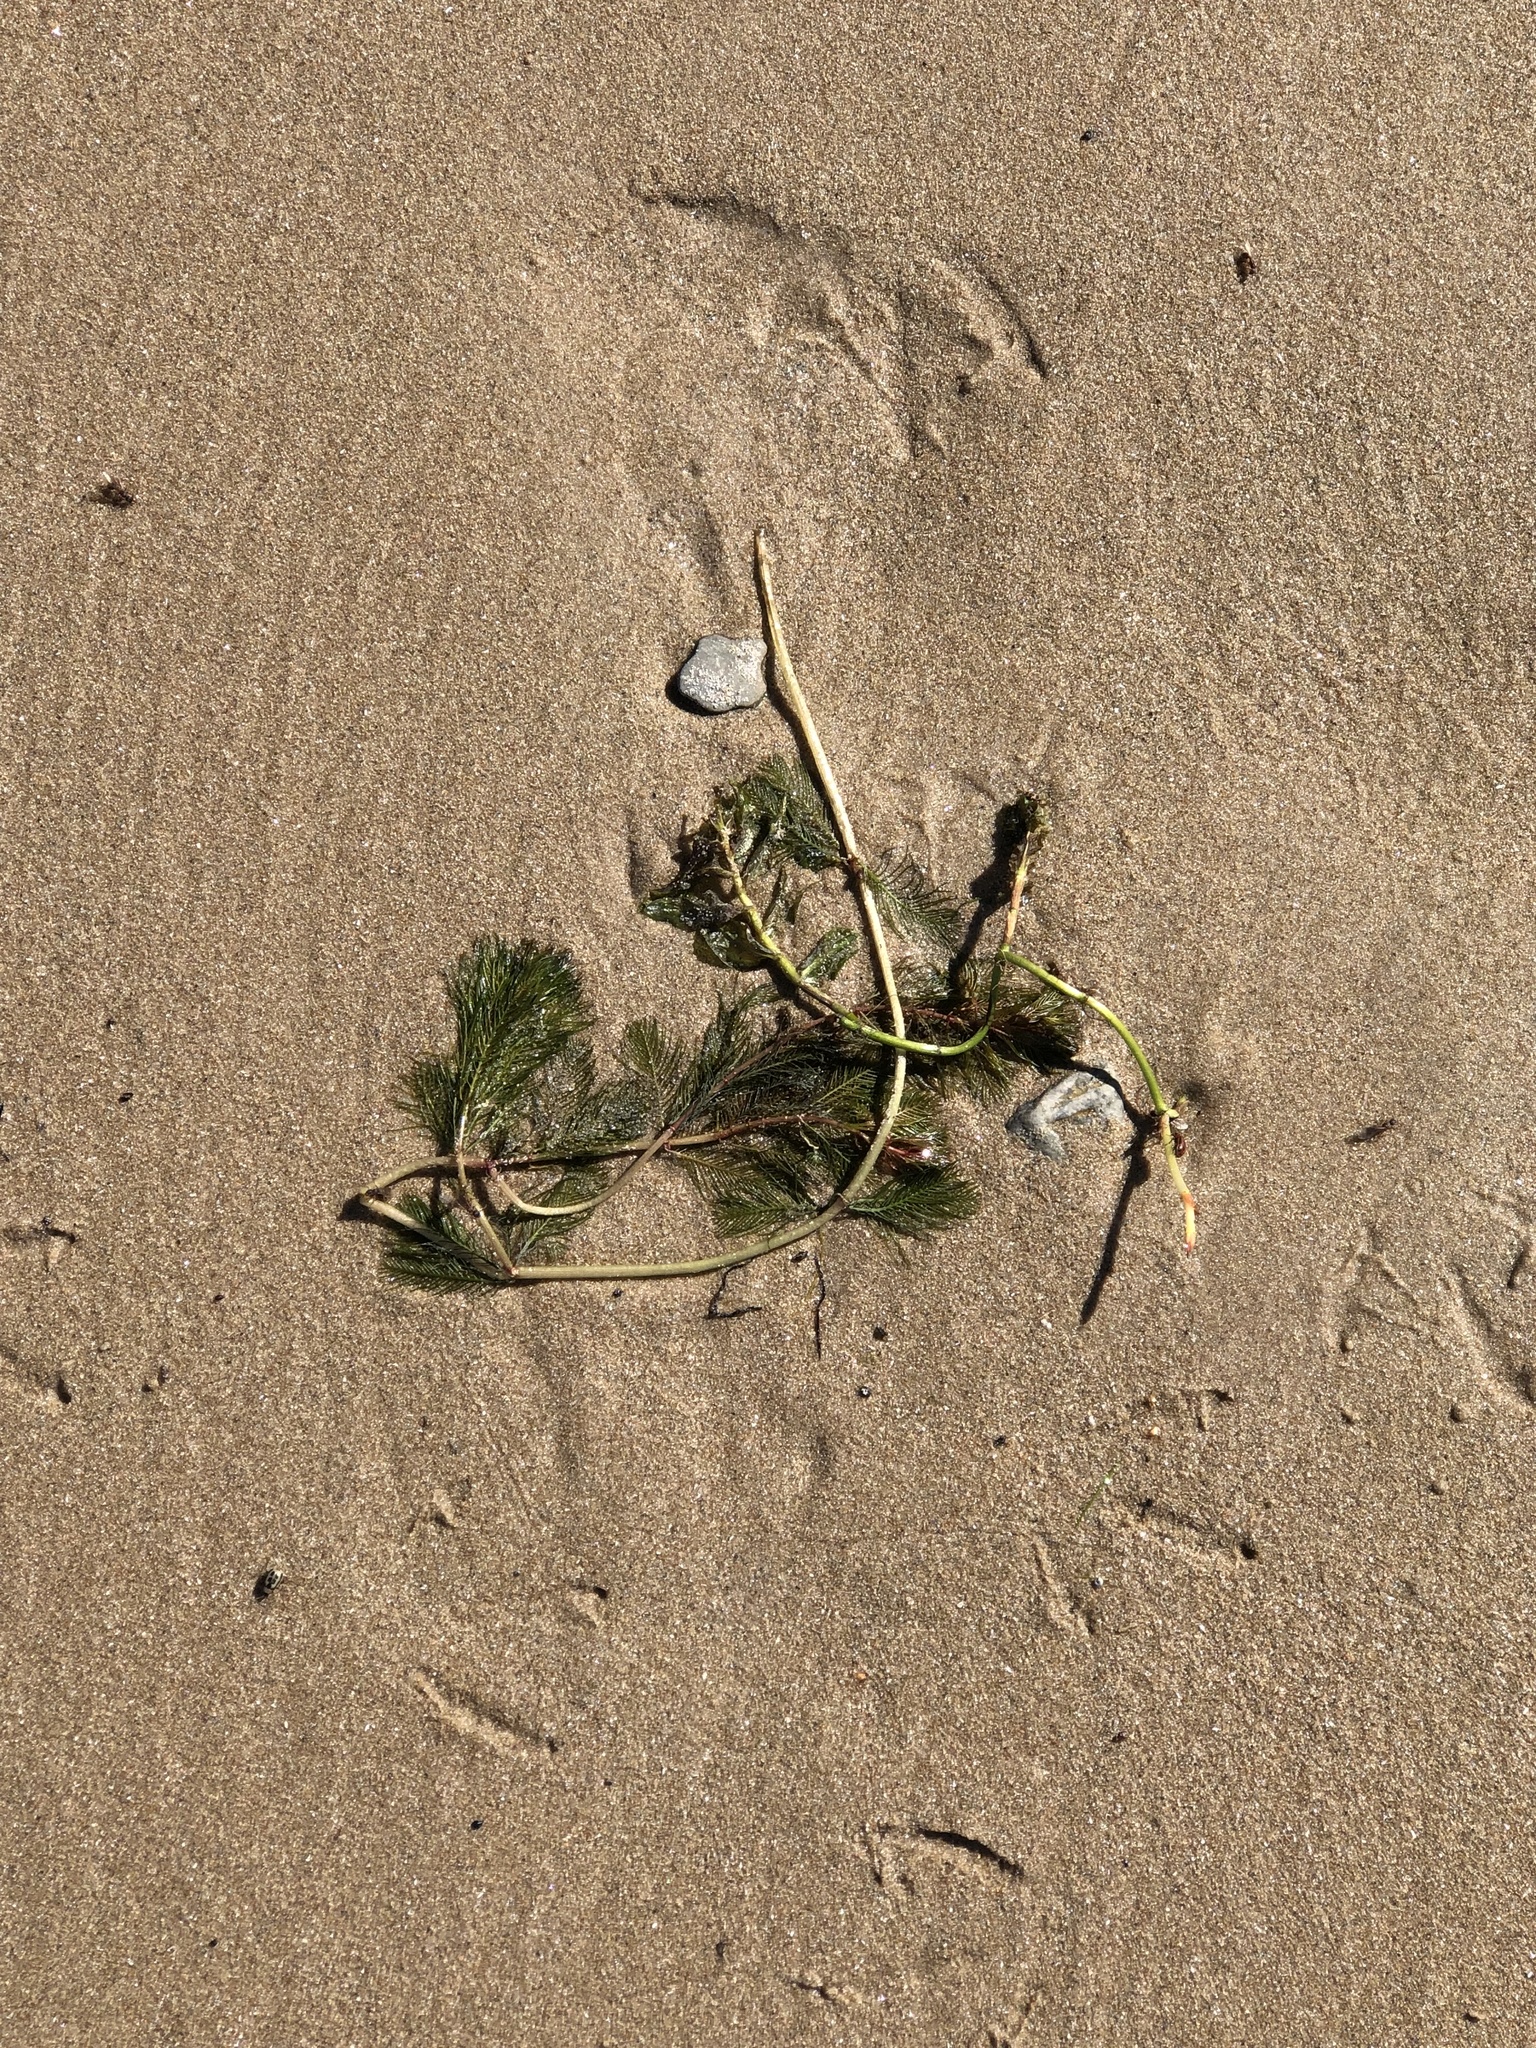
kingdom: Plantae
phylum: Tracheophyta
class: Magnoliopsida
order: Saxifragales
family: Haloragaceae
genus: Myriophyllum
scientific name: Myriophyllum spicatum
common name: Spiked water-milfoil
